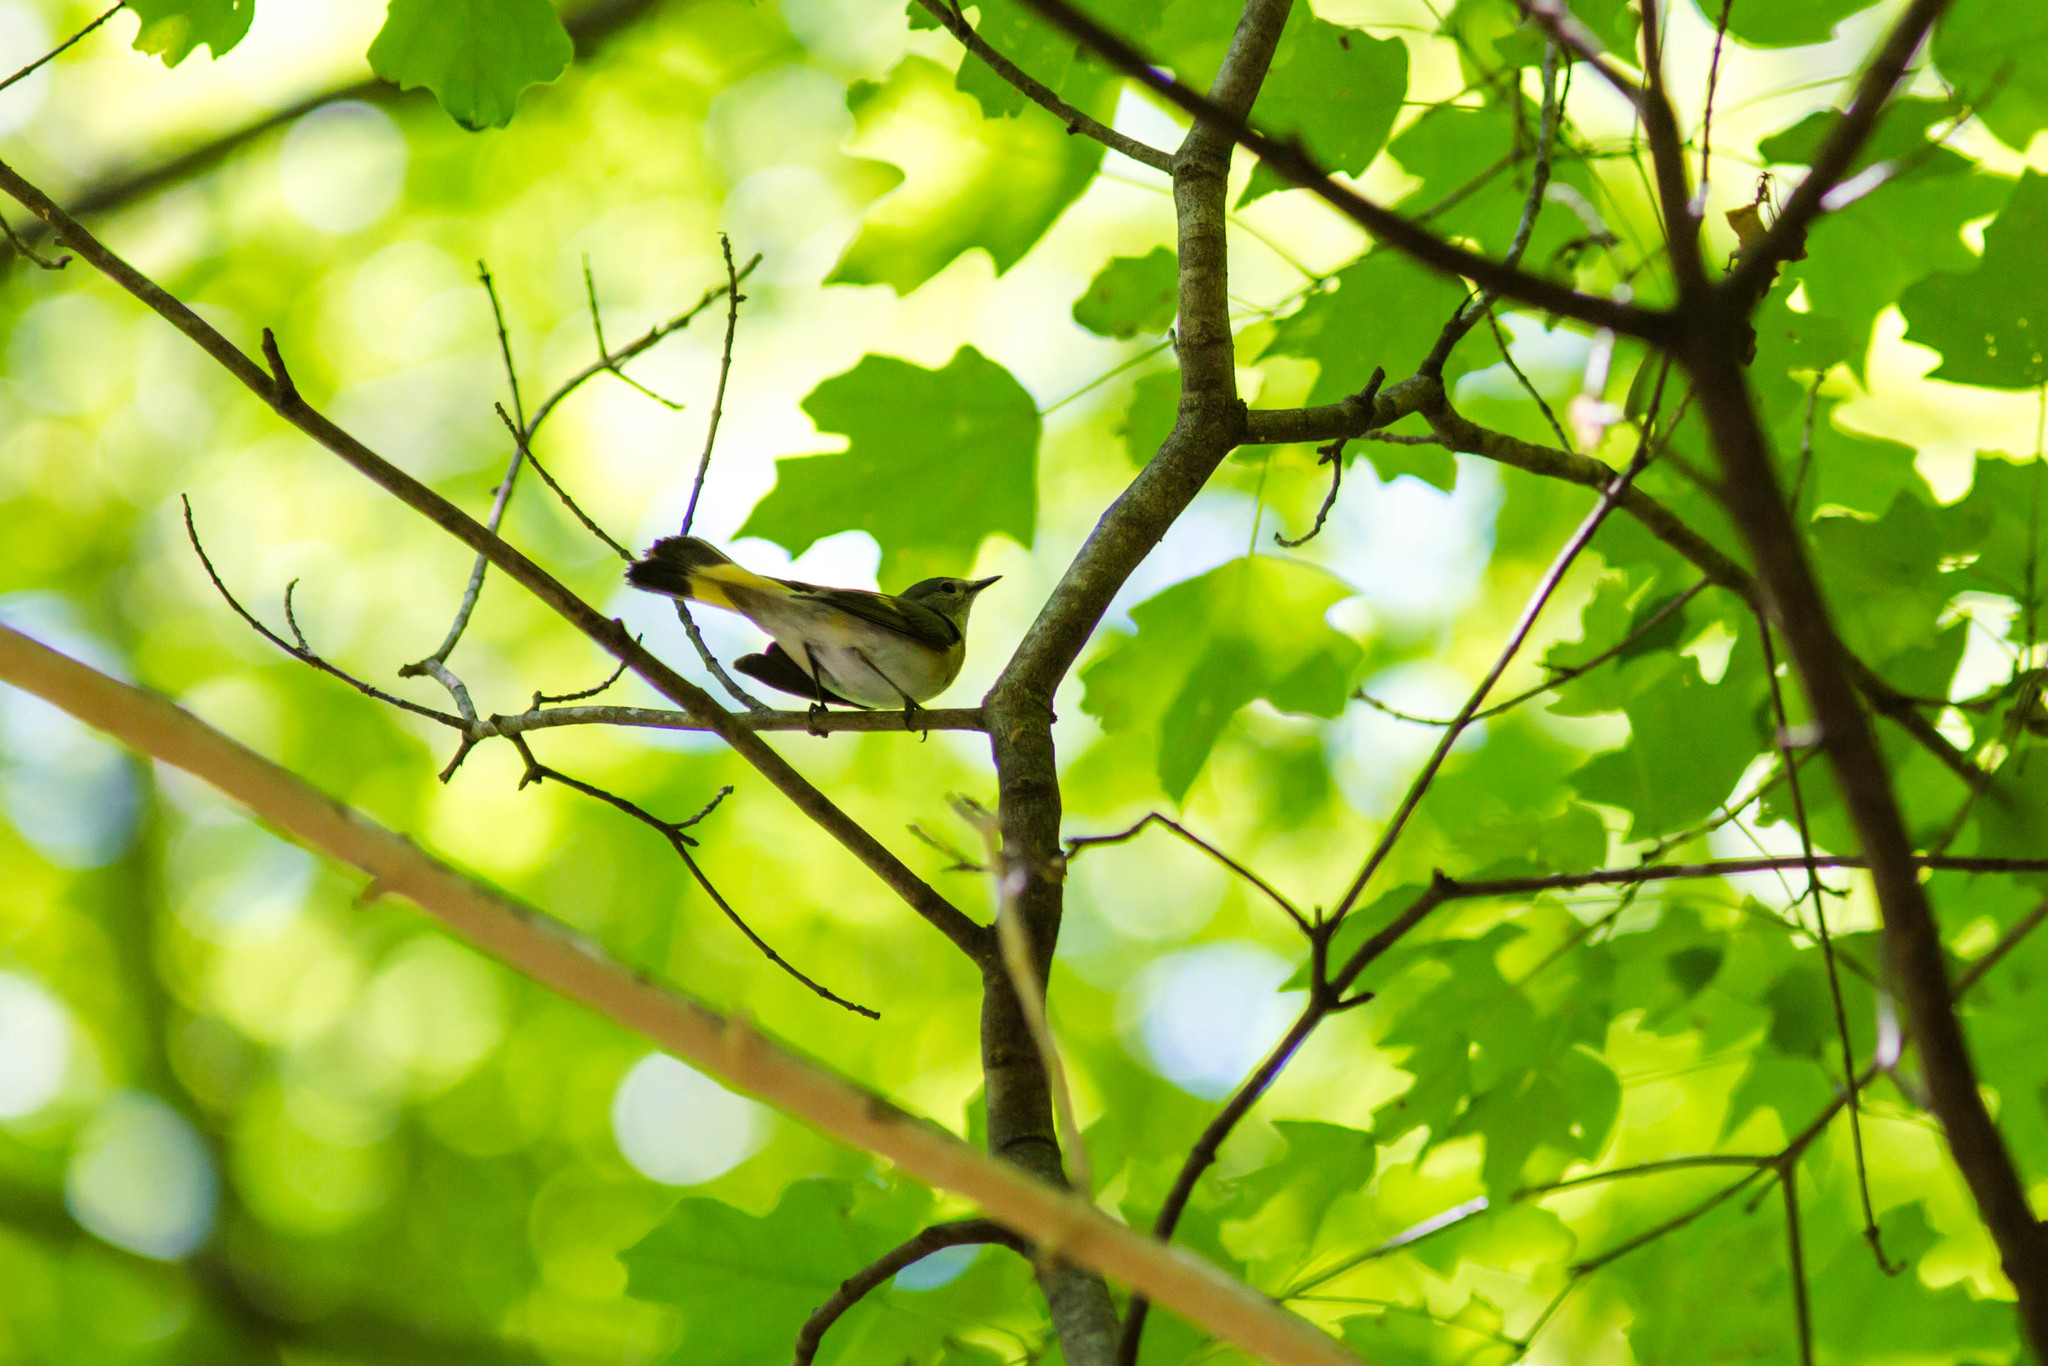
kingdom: Animalia
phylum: Chordata
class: Aves
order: Passeriformes
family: Parulidae
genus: Setophaga
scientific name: Setophaga ruticilla
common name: American redstart
